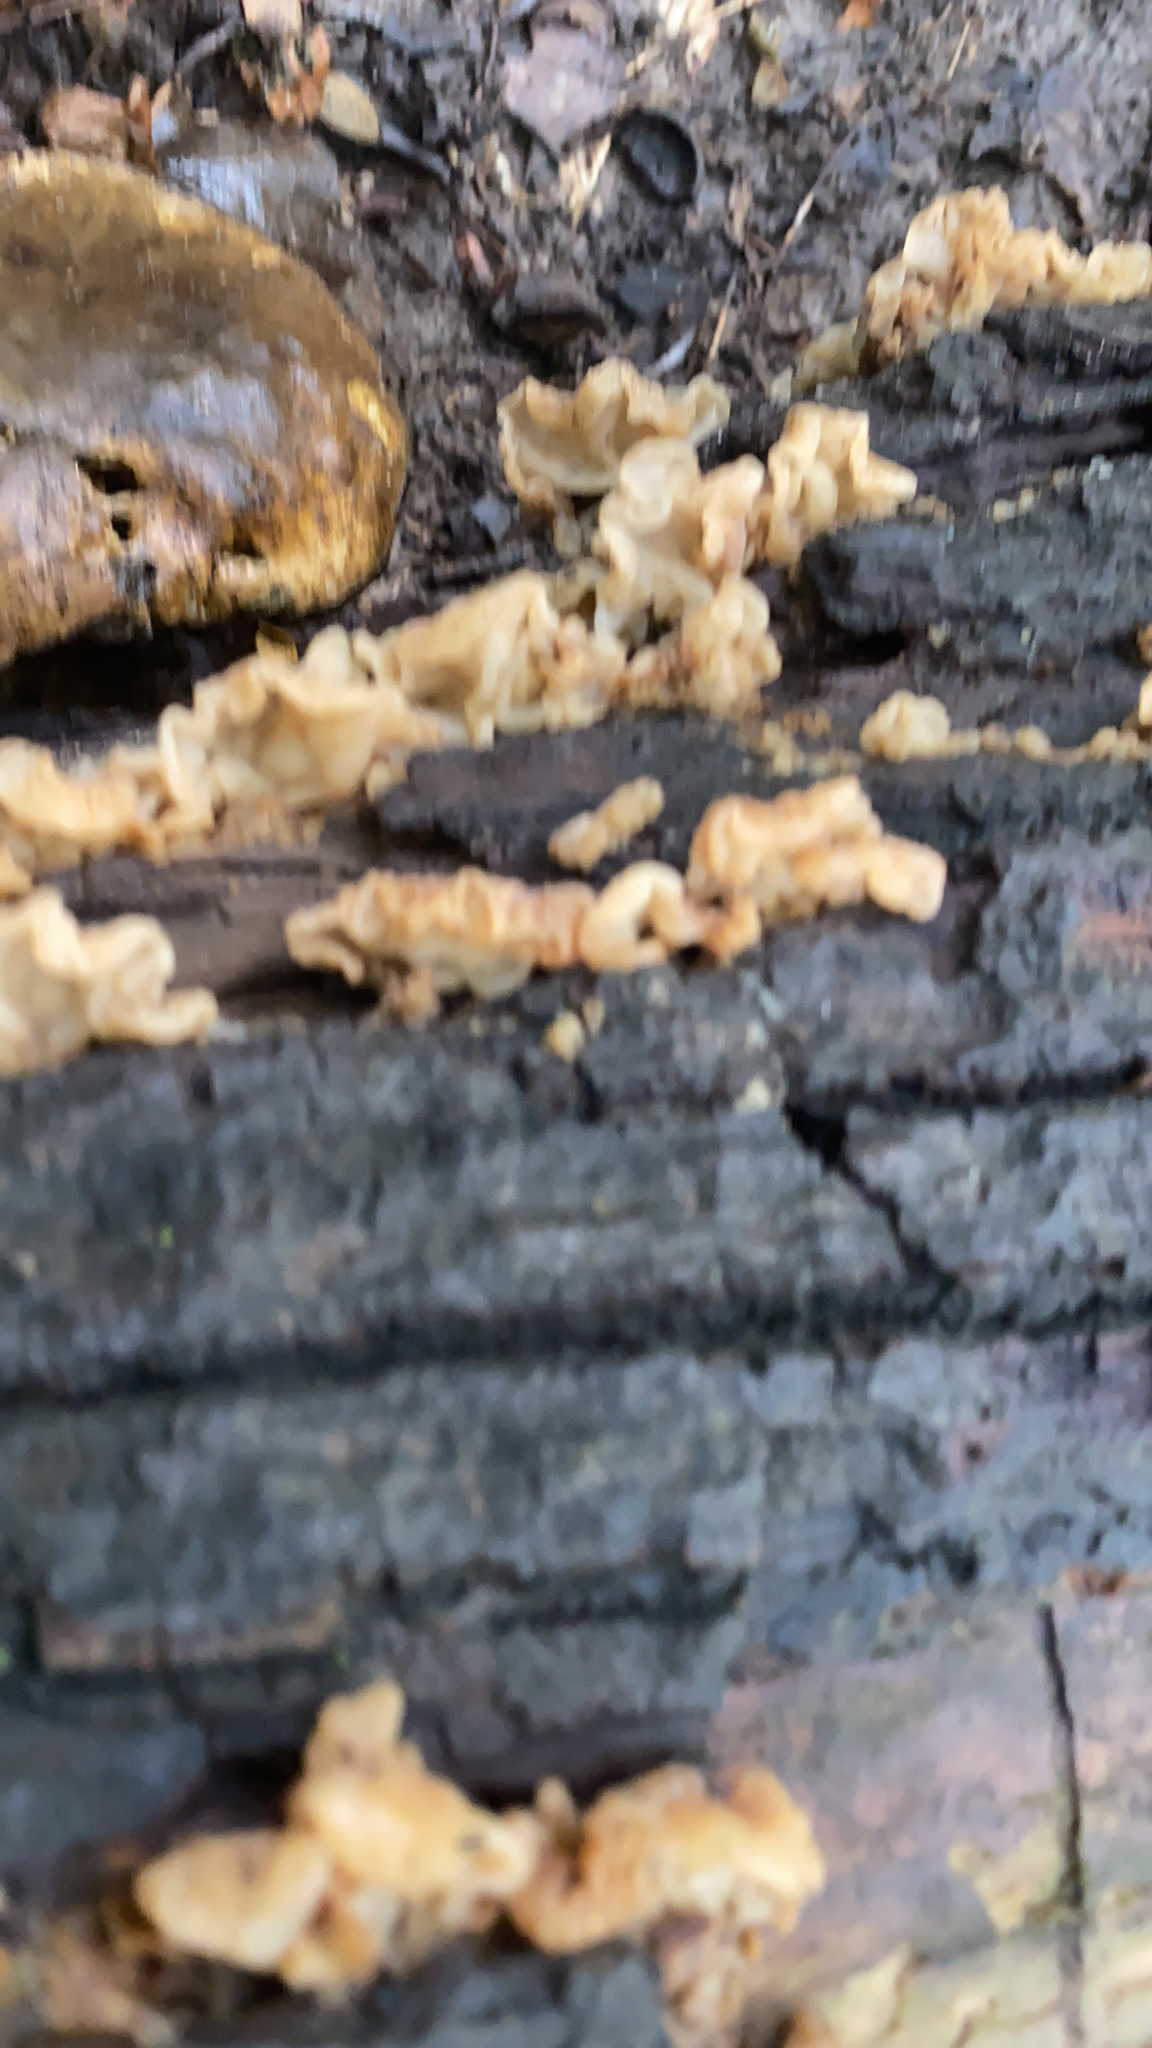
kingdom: Fungi
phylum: Basidiomycota
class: Agaricomycetes
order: Auriculariales
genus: Ductifera
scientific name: Ductifera pululahuana
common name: White jelly fungus
